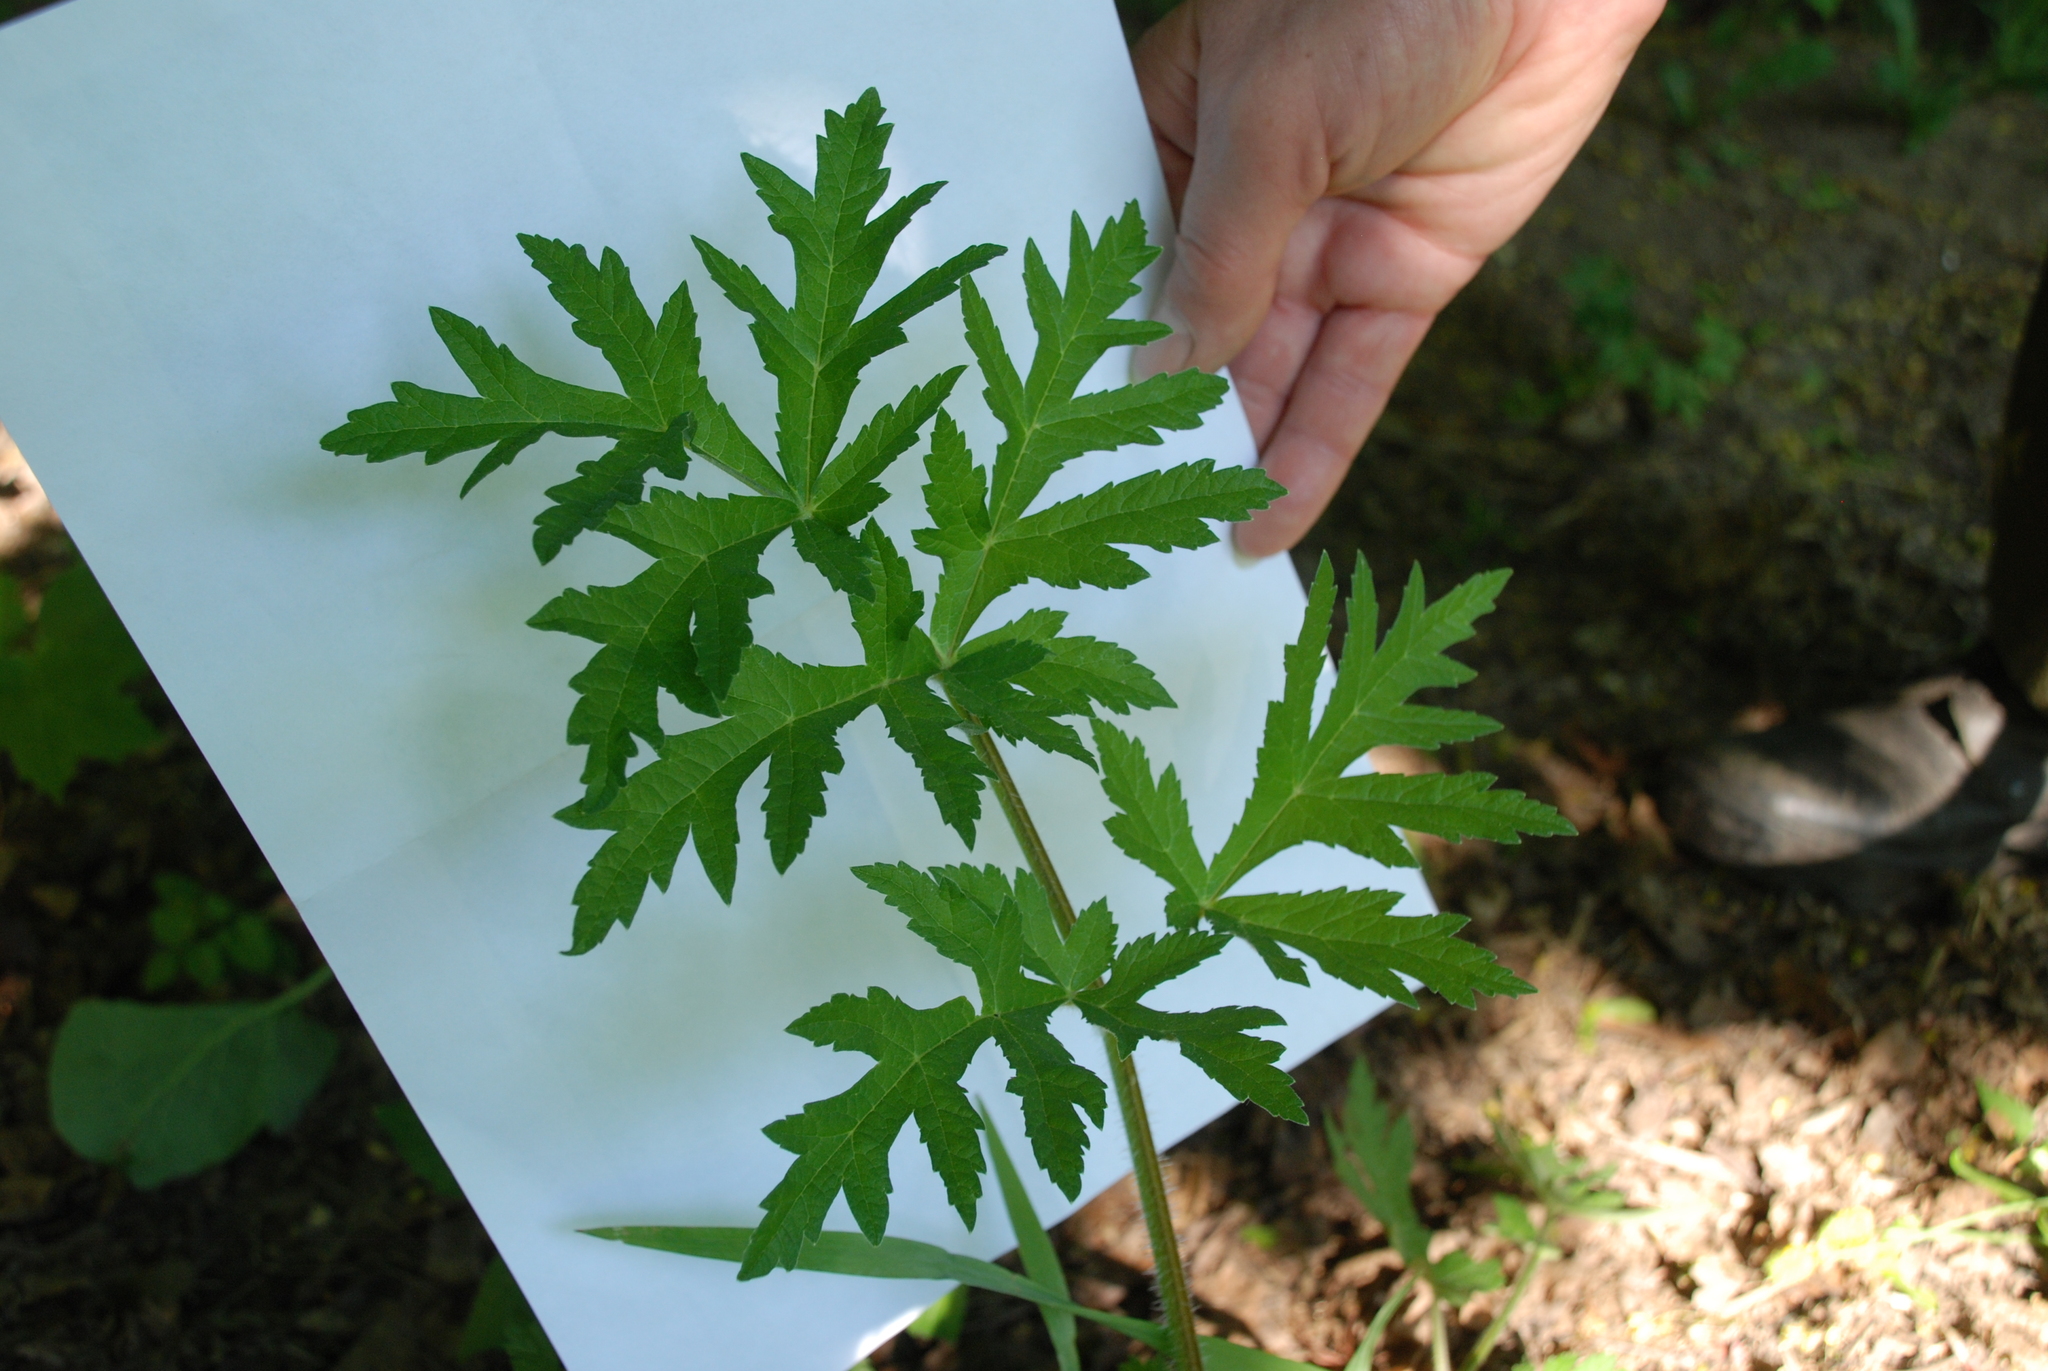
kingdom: Plantae
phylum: Tracheophyta
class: Magnoliopsida
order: Apiales
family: Apiaceae
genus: Heracleum
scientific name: Heracleum sphondylium
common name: Hogweed
